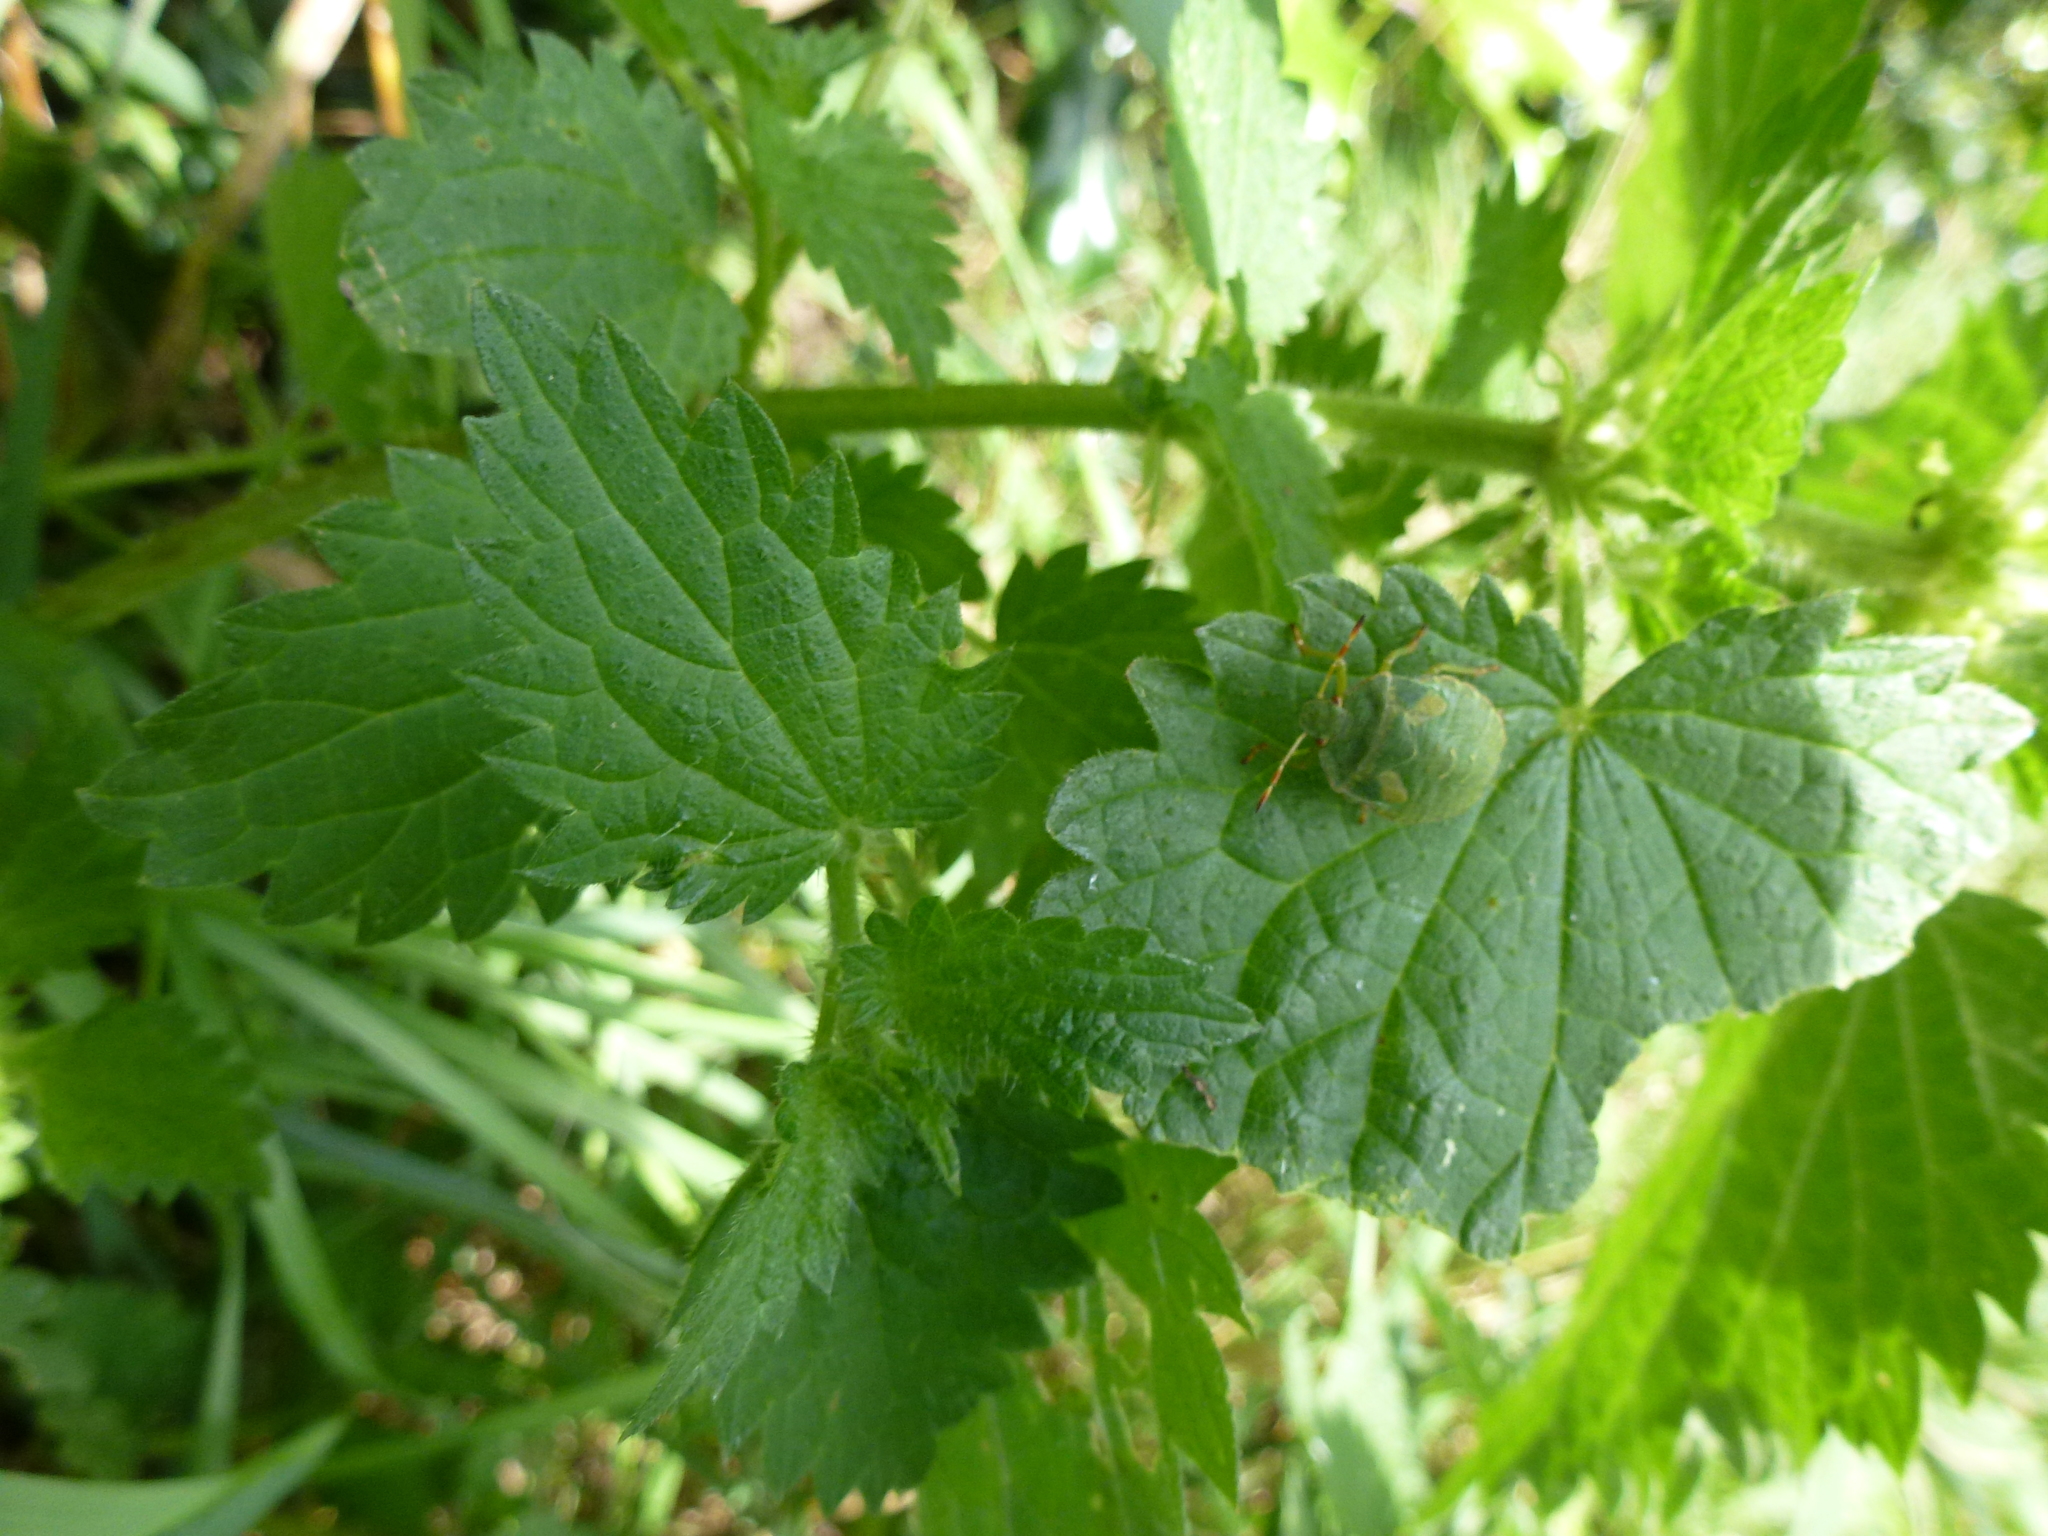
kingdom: Animalia
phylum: Arthropoda
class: Insecta
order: Hemiptera
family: Pentatomidae
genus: Palomena
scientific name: Palomena prasina
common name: Green shieldbug
